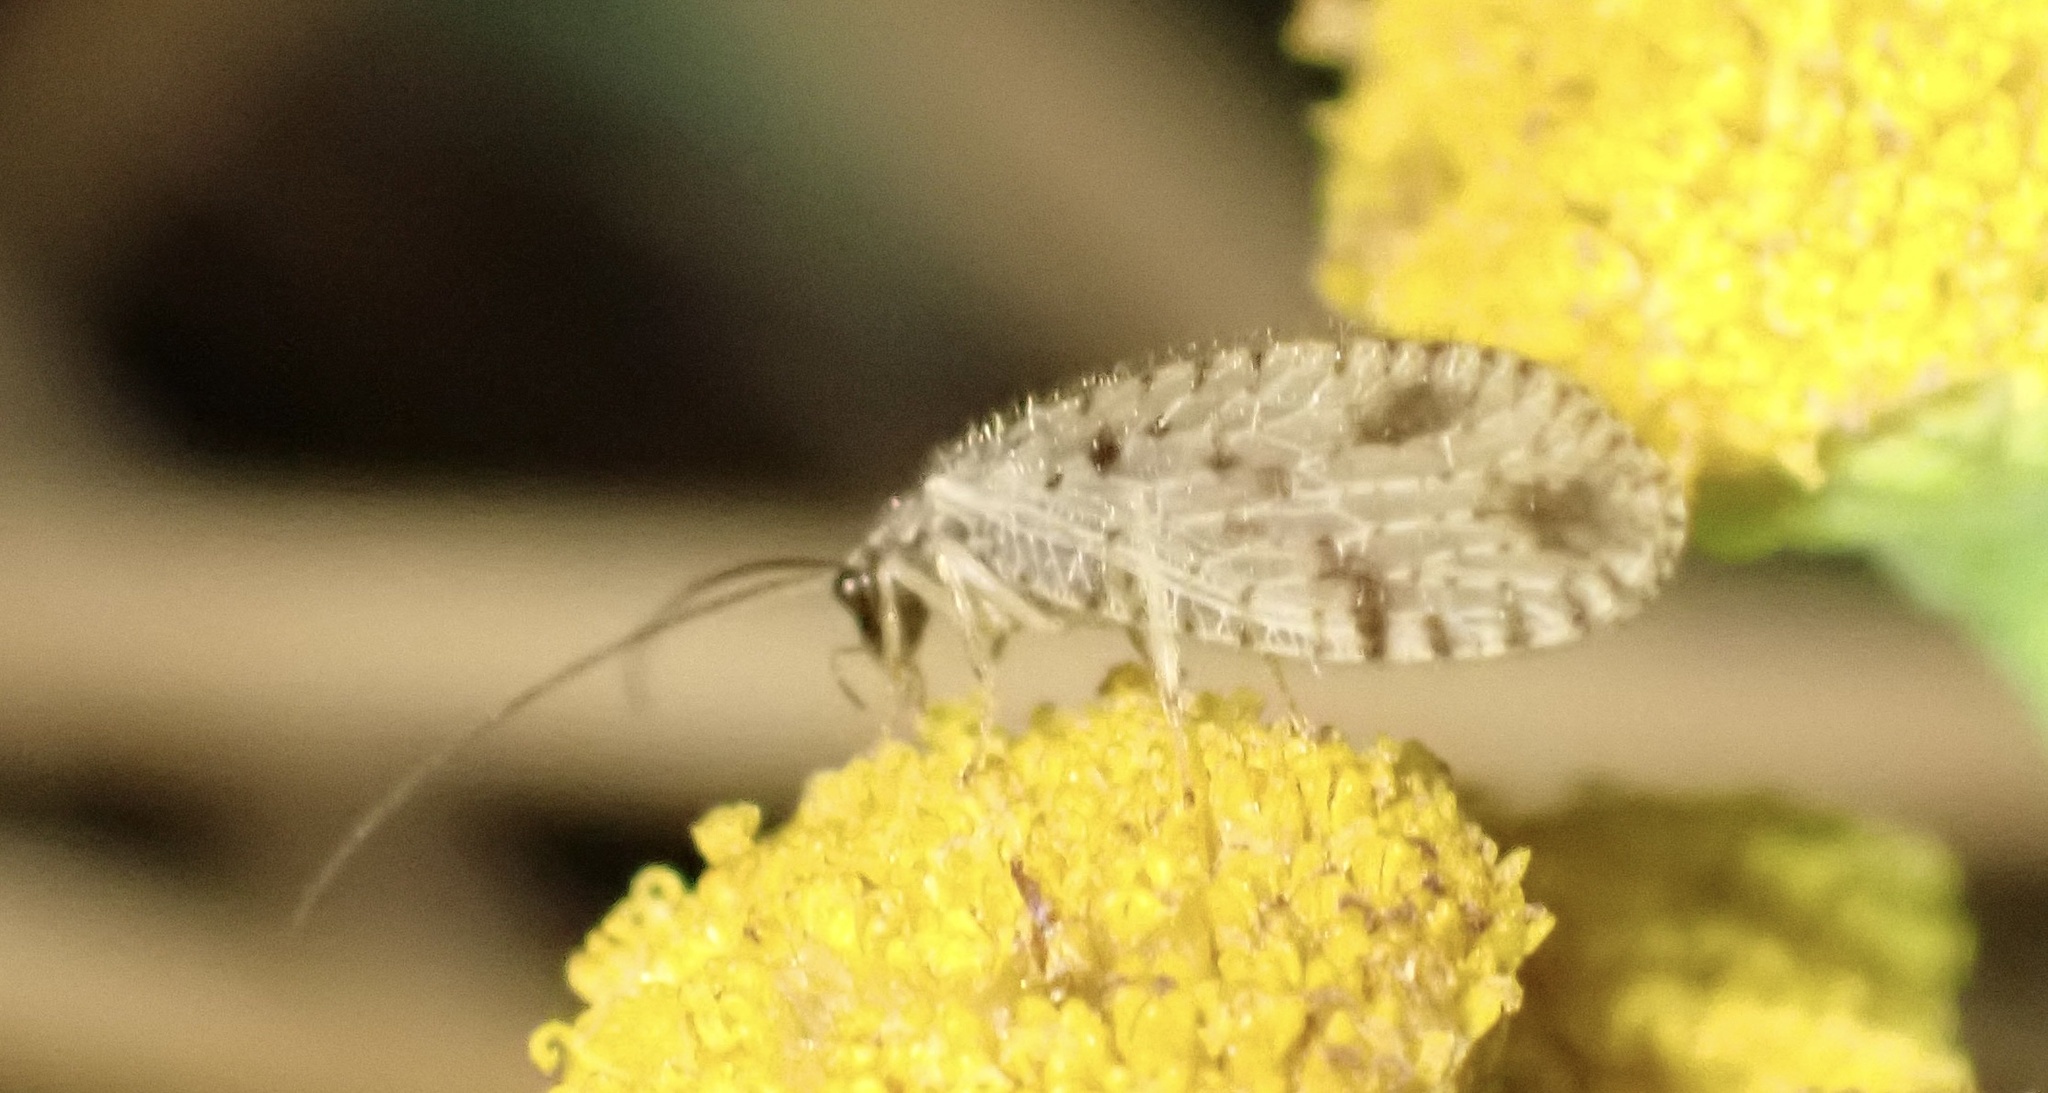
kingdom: Animalia
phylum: Arthropoda
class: Insecta
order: Neuroptera
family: Hemerobiidae
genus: Micromus
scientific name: Micromus variegatus
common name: Brown lacewing
